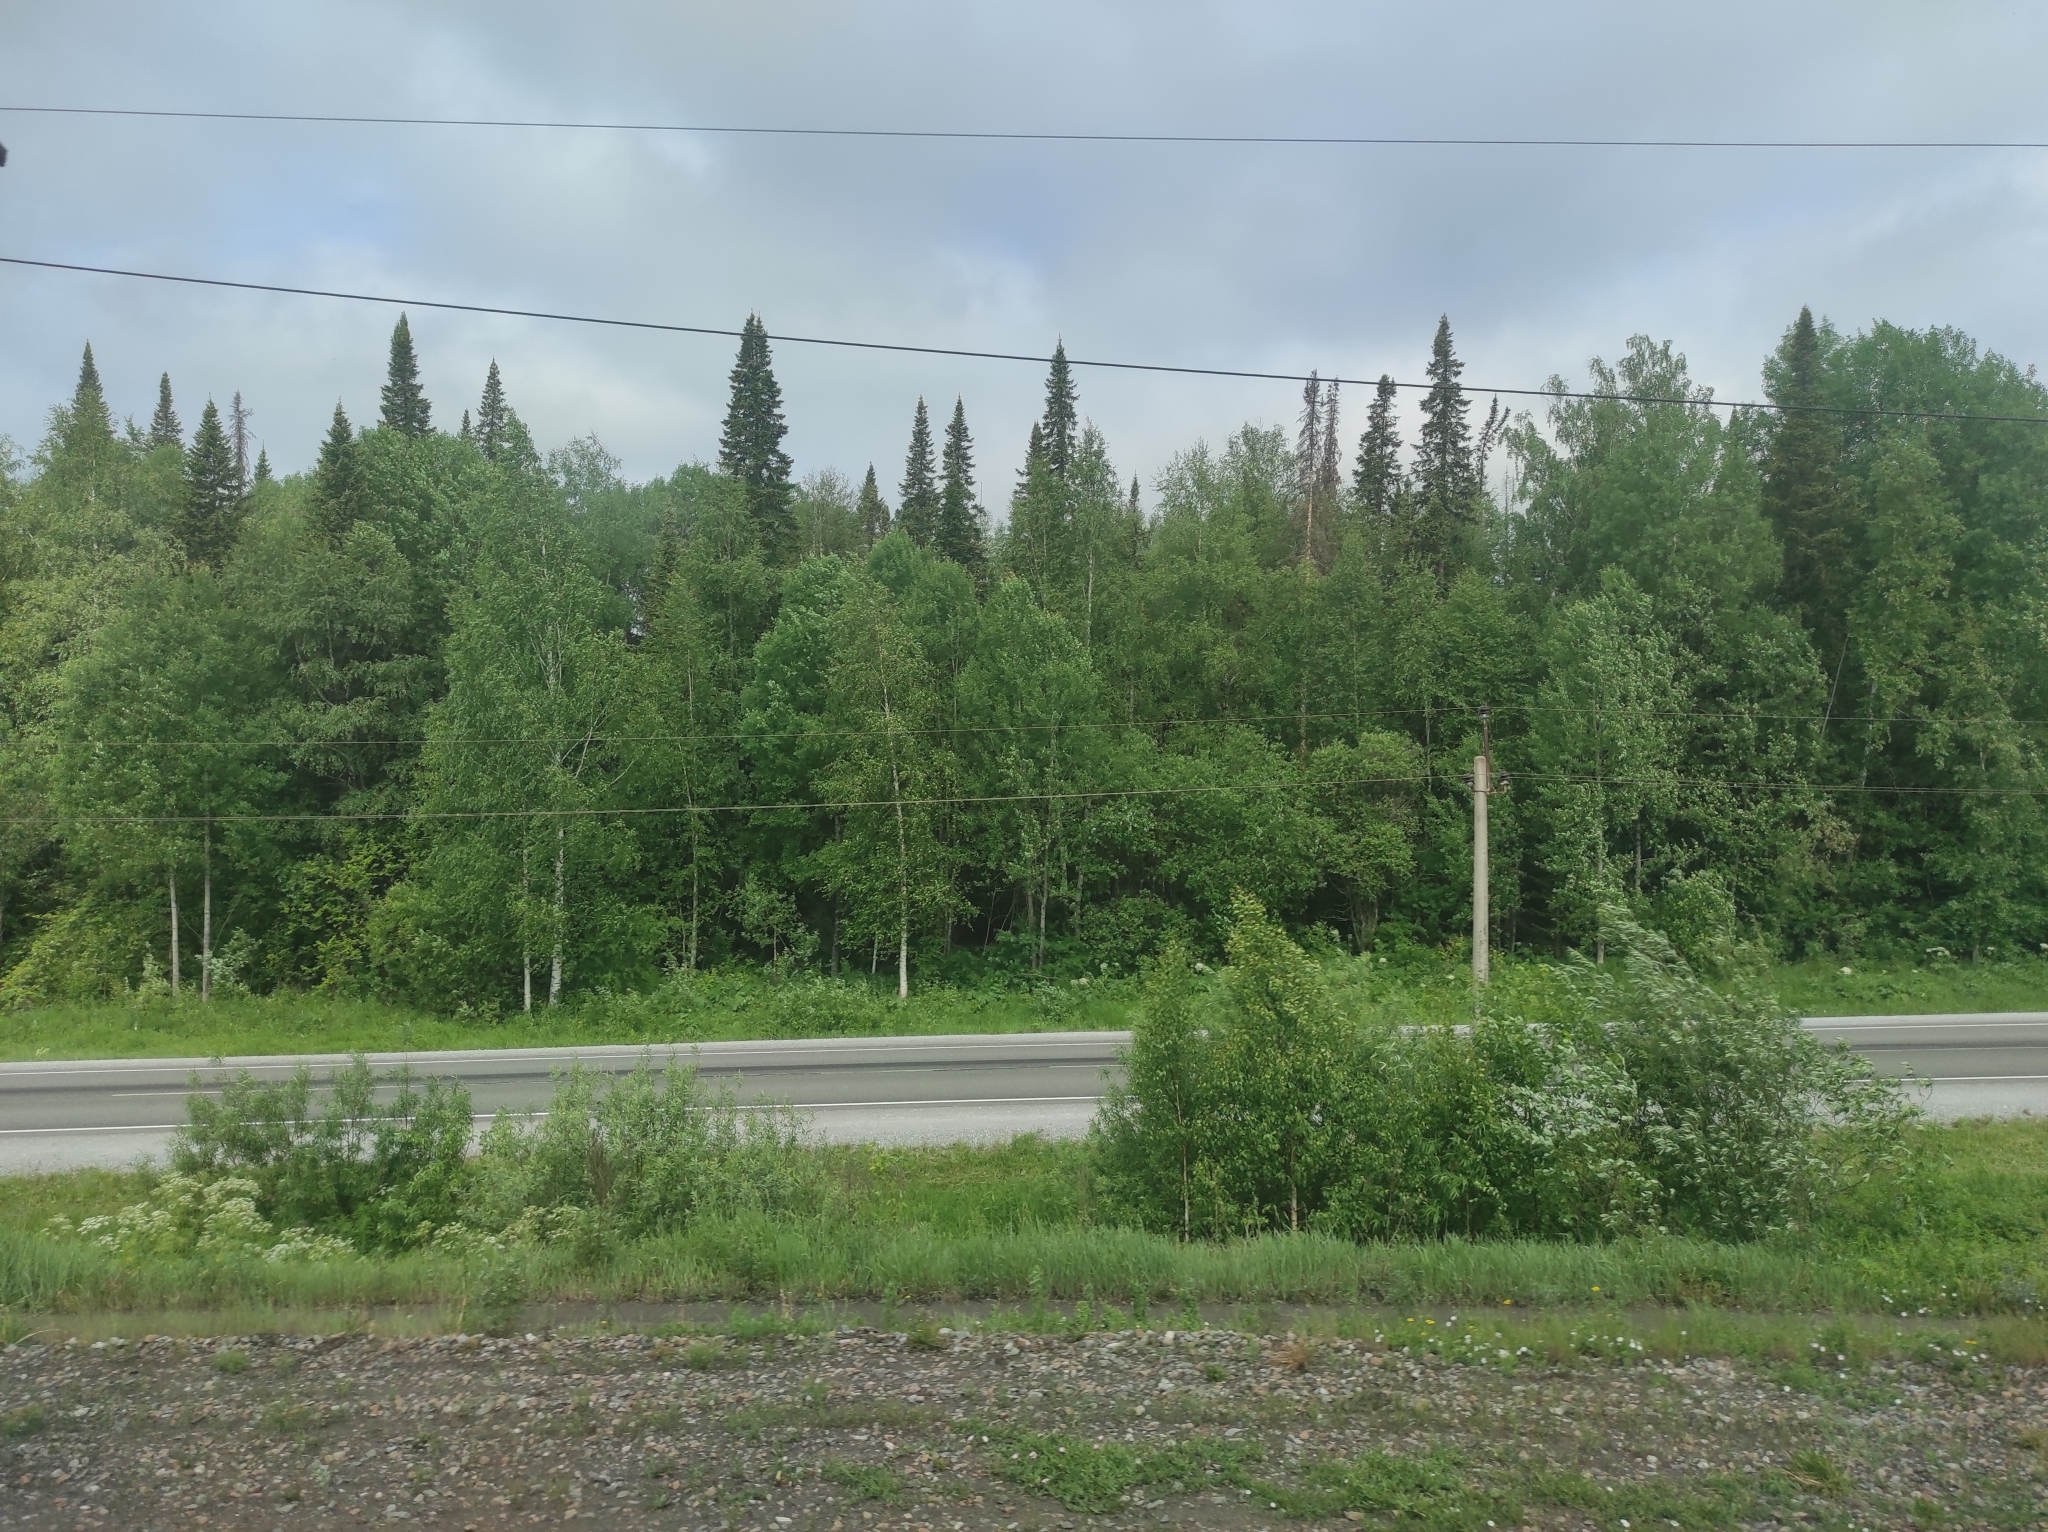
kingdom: Plantae
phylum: Tracheophyta
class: Pinopsida
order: Pinales
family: Pinaceae
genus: Picea
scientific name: Picea obovata
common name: Siberian spruce
